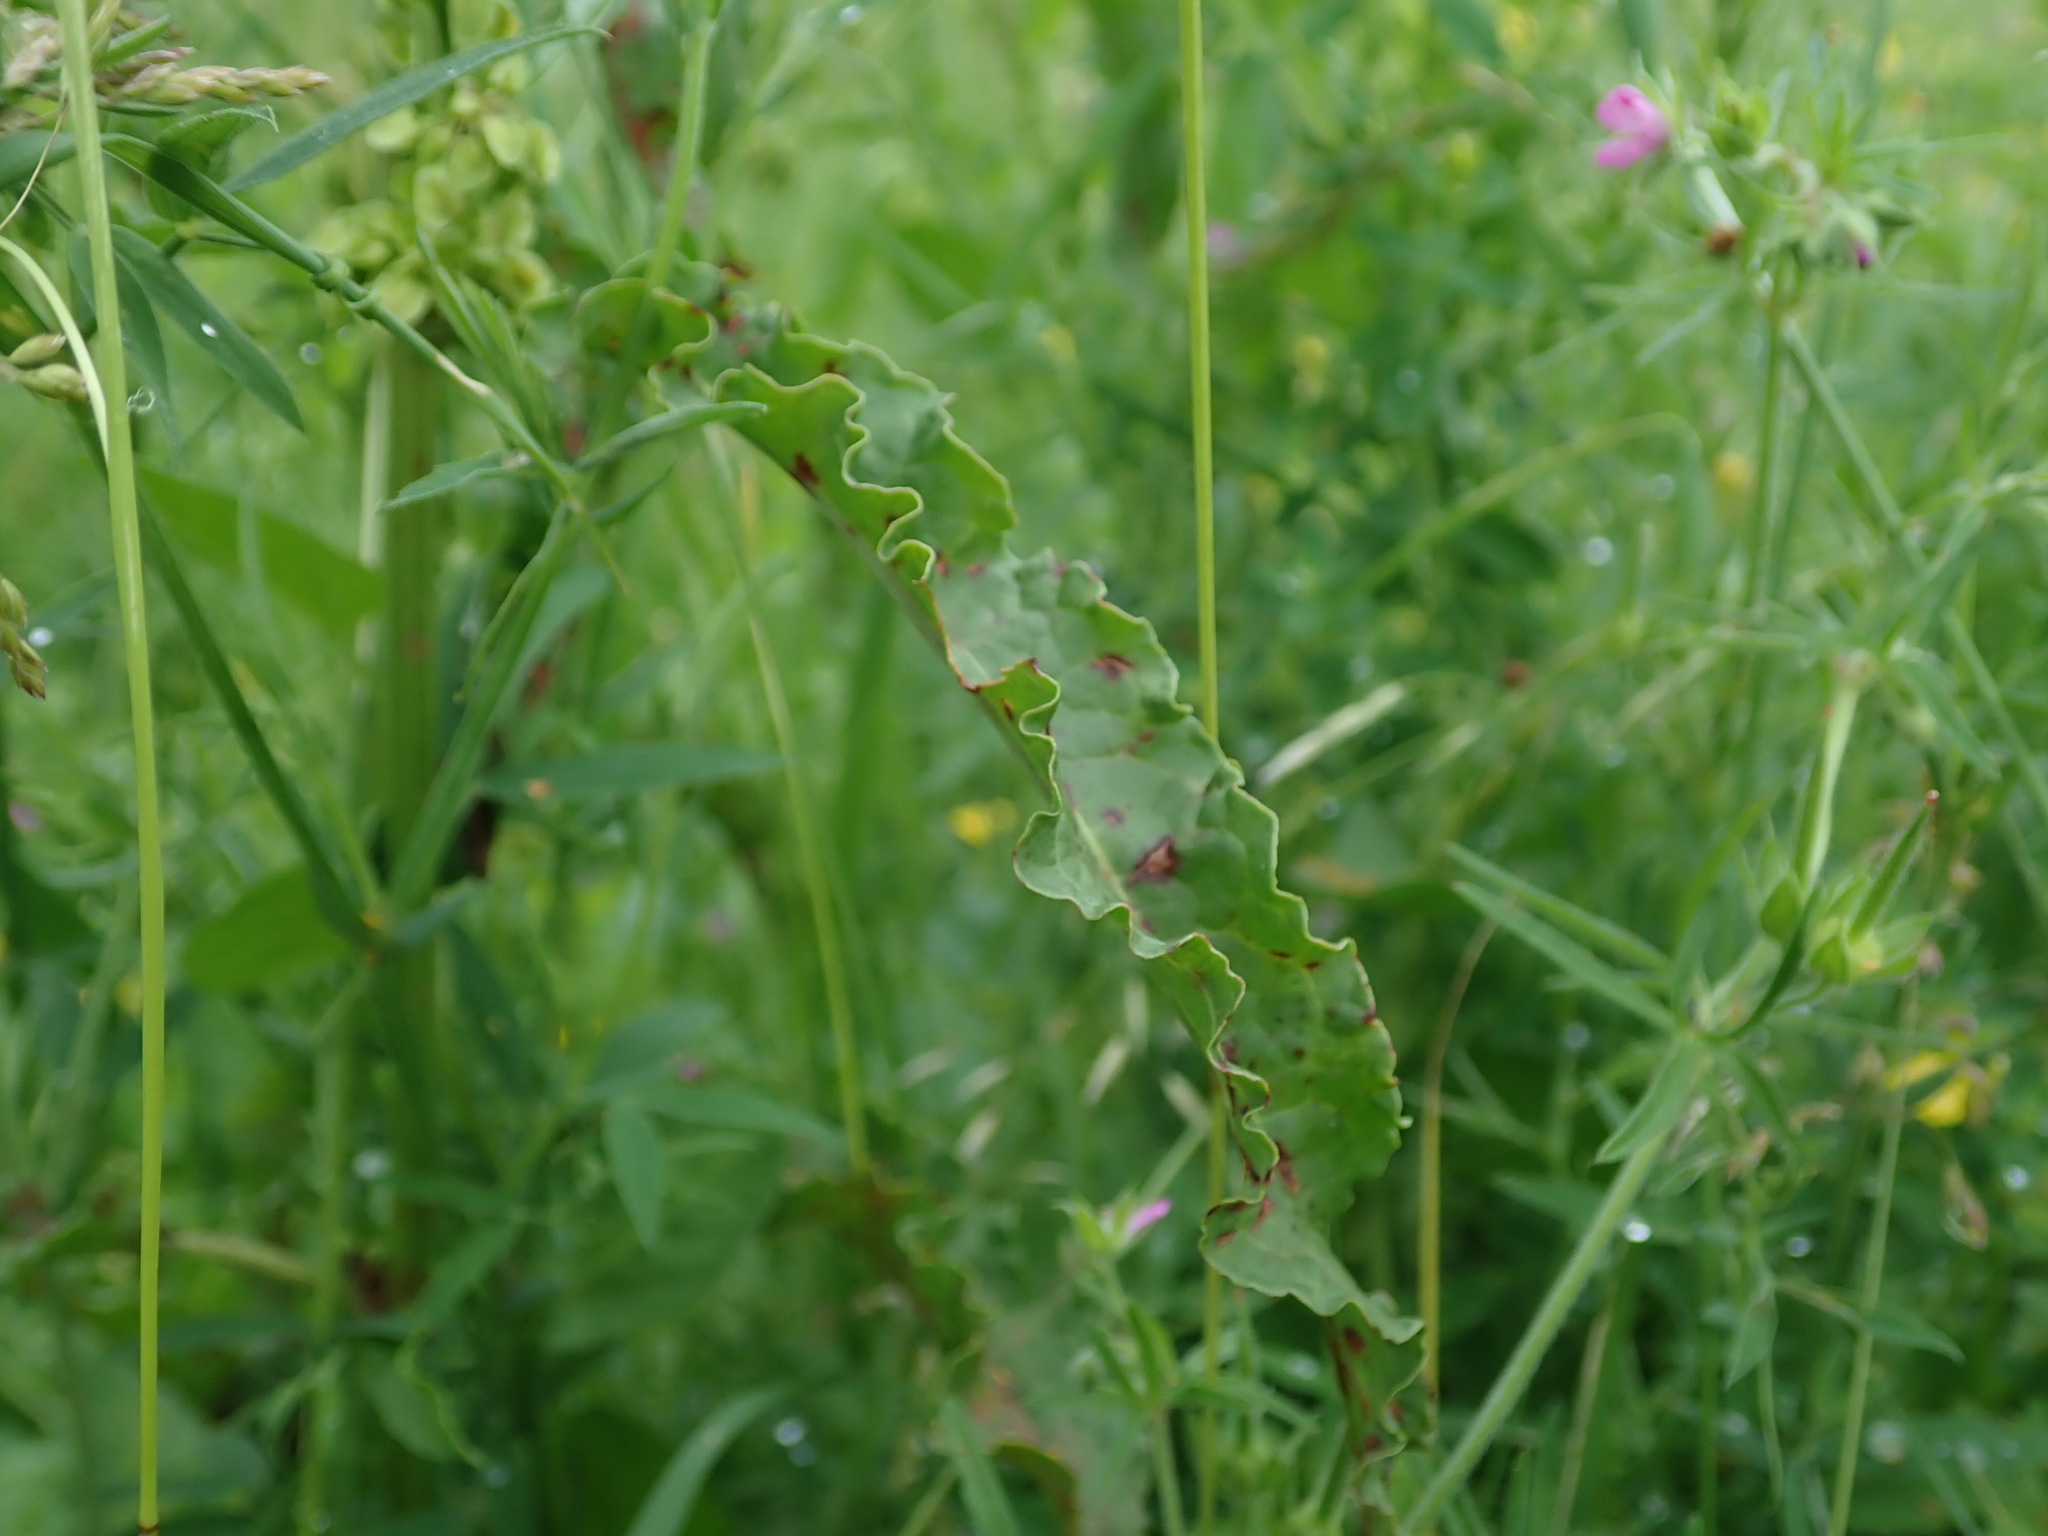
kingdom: Plantae
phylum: Tracheophyta
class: Magnoliopsida
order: Caryophyllales
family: Polygonaceae
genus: Rumex
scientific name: Rumex crispus
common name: Curled dock
